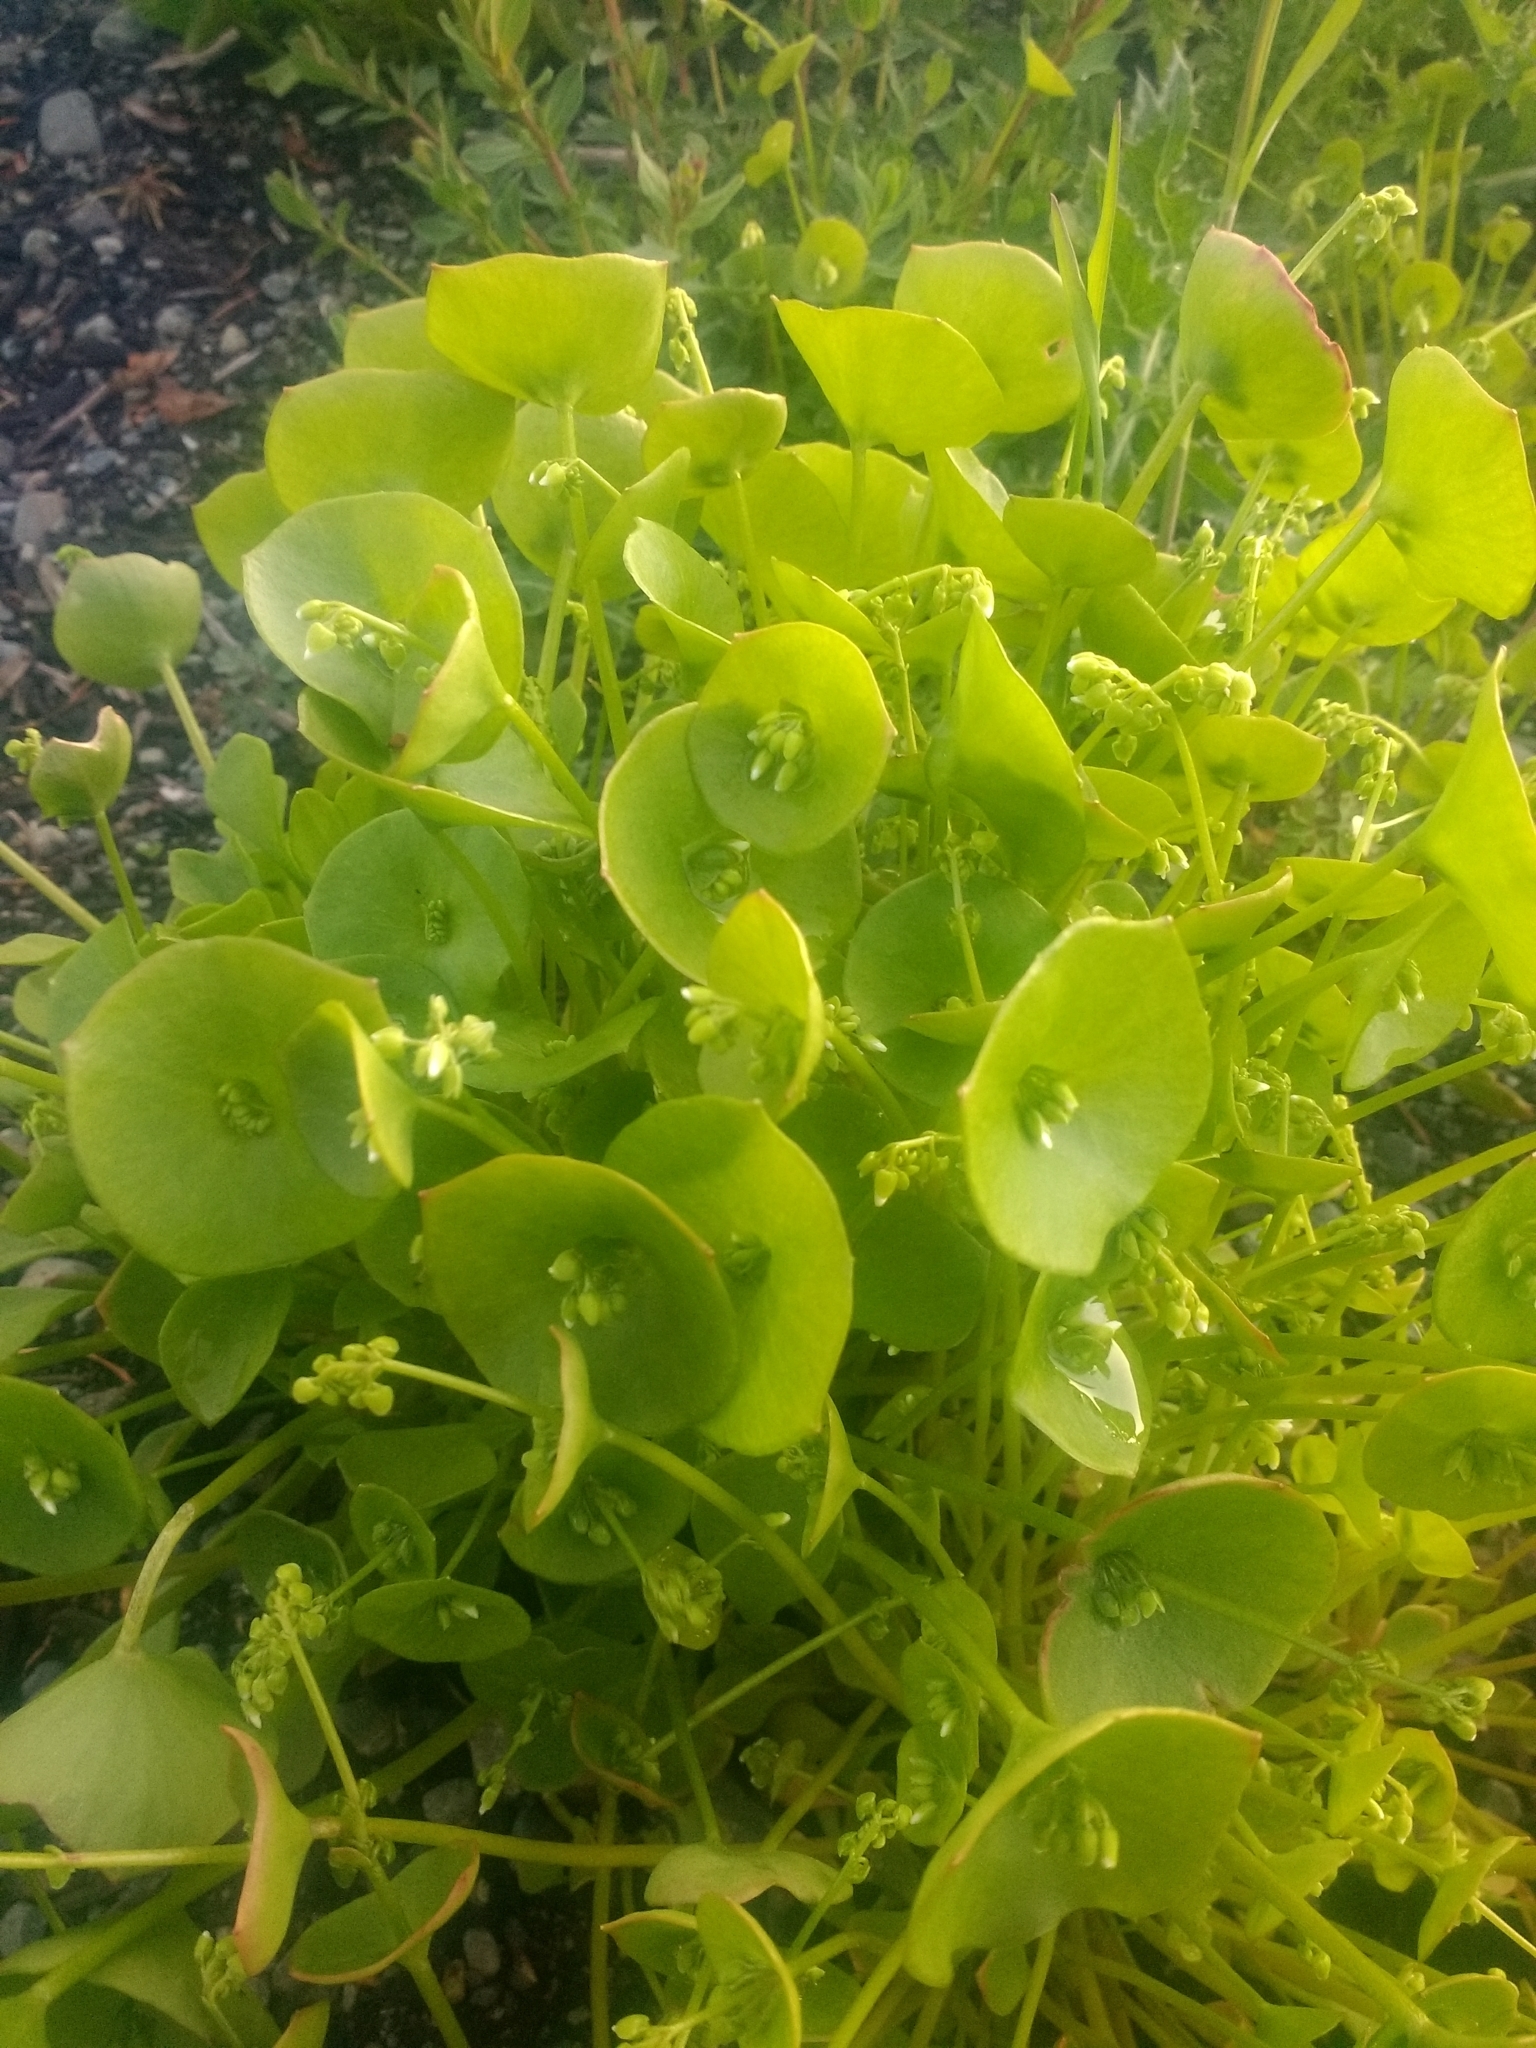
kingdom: Plantae
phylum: Tracheophyta
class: Magnoliopsida
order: Caryophyllales
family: Montiaceae
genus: Claytonia
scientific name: Claytonia perfoliata
